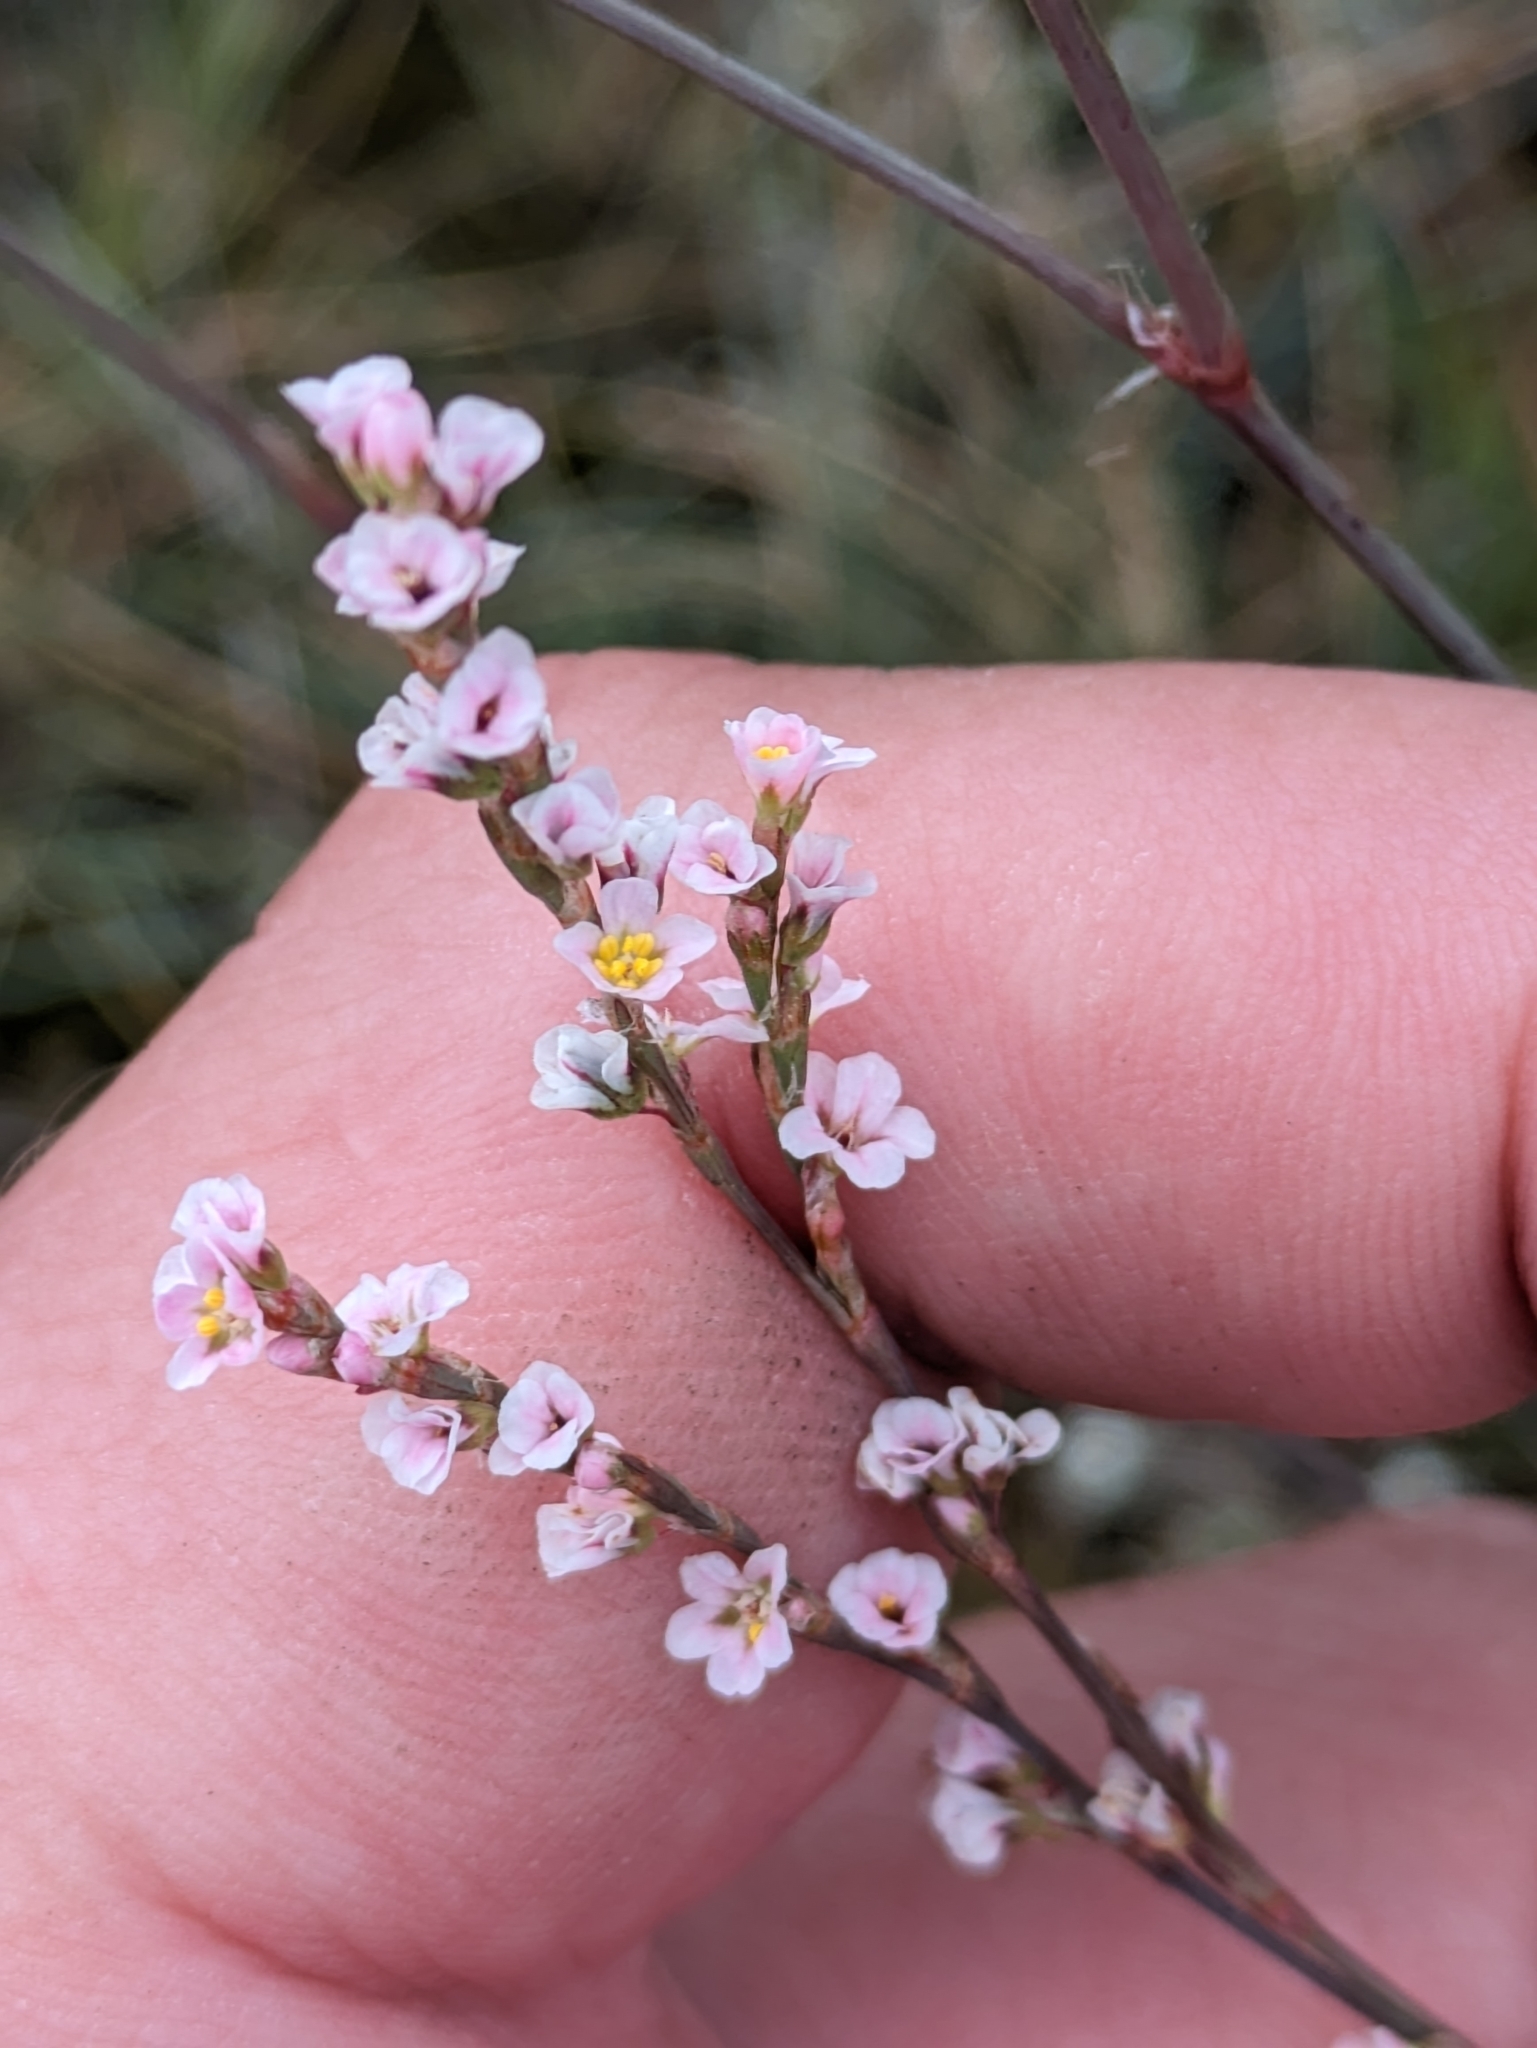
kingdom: Plantae
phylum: Tracheophyta
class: Magnoliopsida
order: Caryophyllales
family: Polygonaceae
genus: Polygonum
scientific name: Polygonum arenarium
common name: Lesser red-knotgrass
